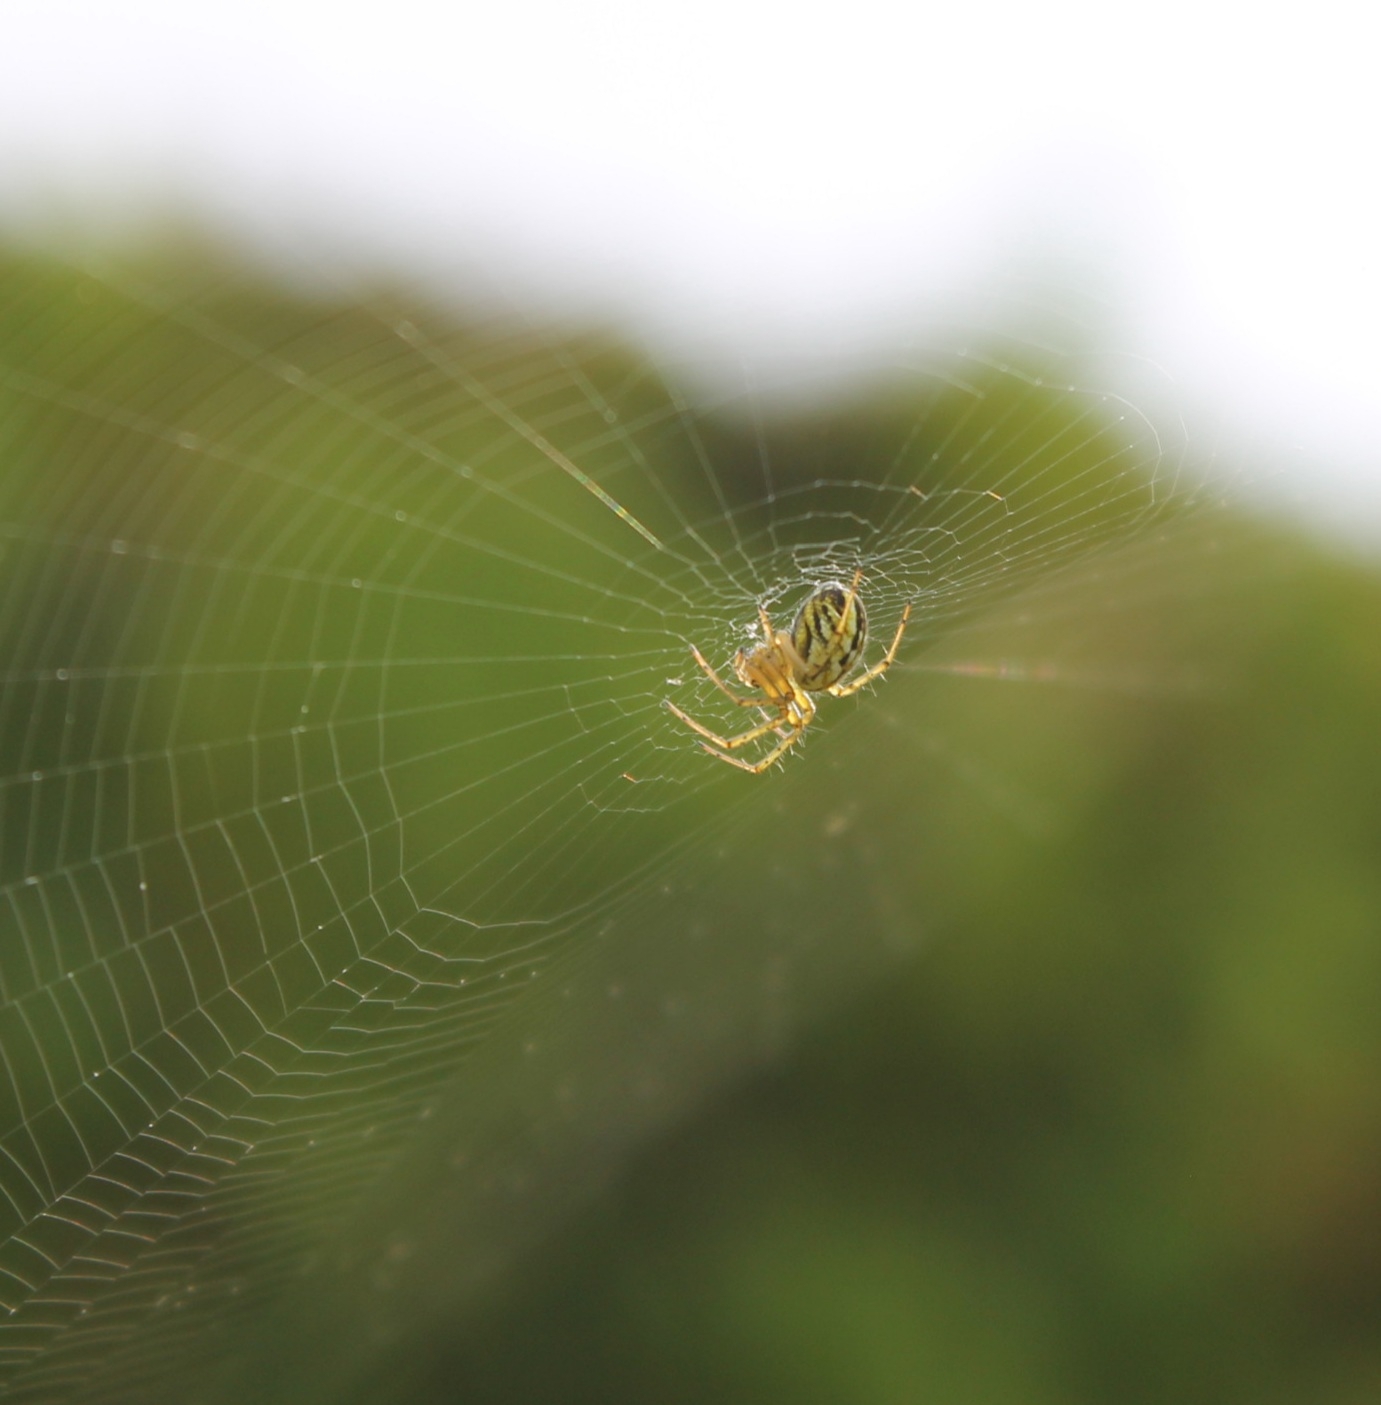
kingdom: Animalia
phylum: Arthropoda
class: Arachnida
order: Araneae
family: Araneidae
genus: Mangora
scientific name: Mangora acalypha
